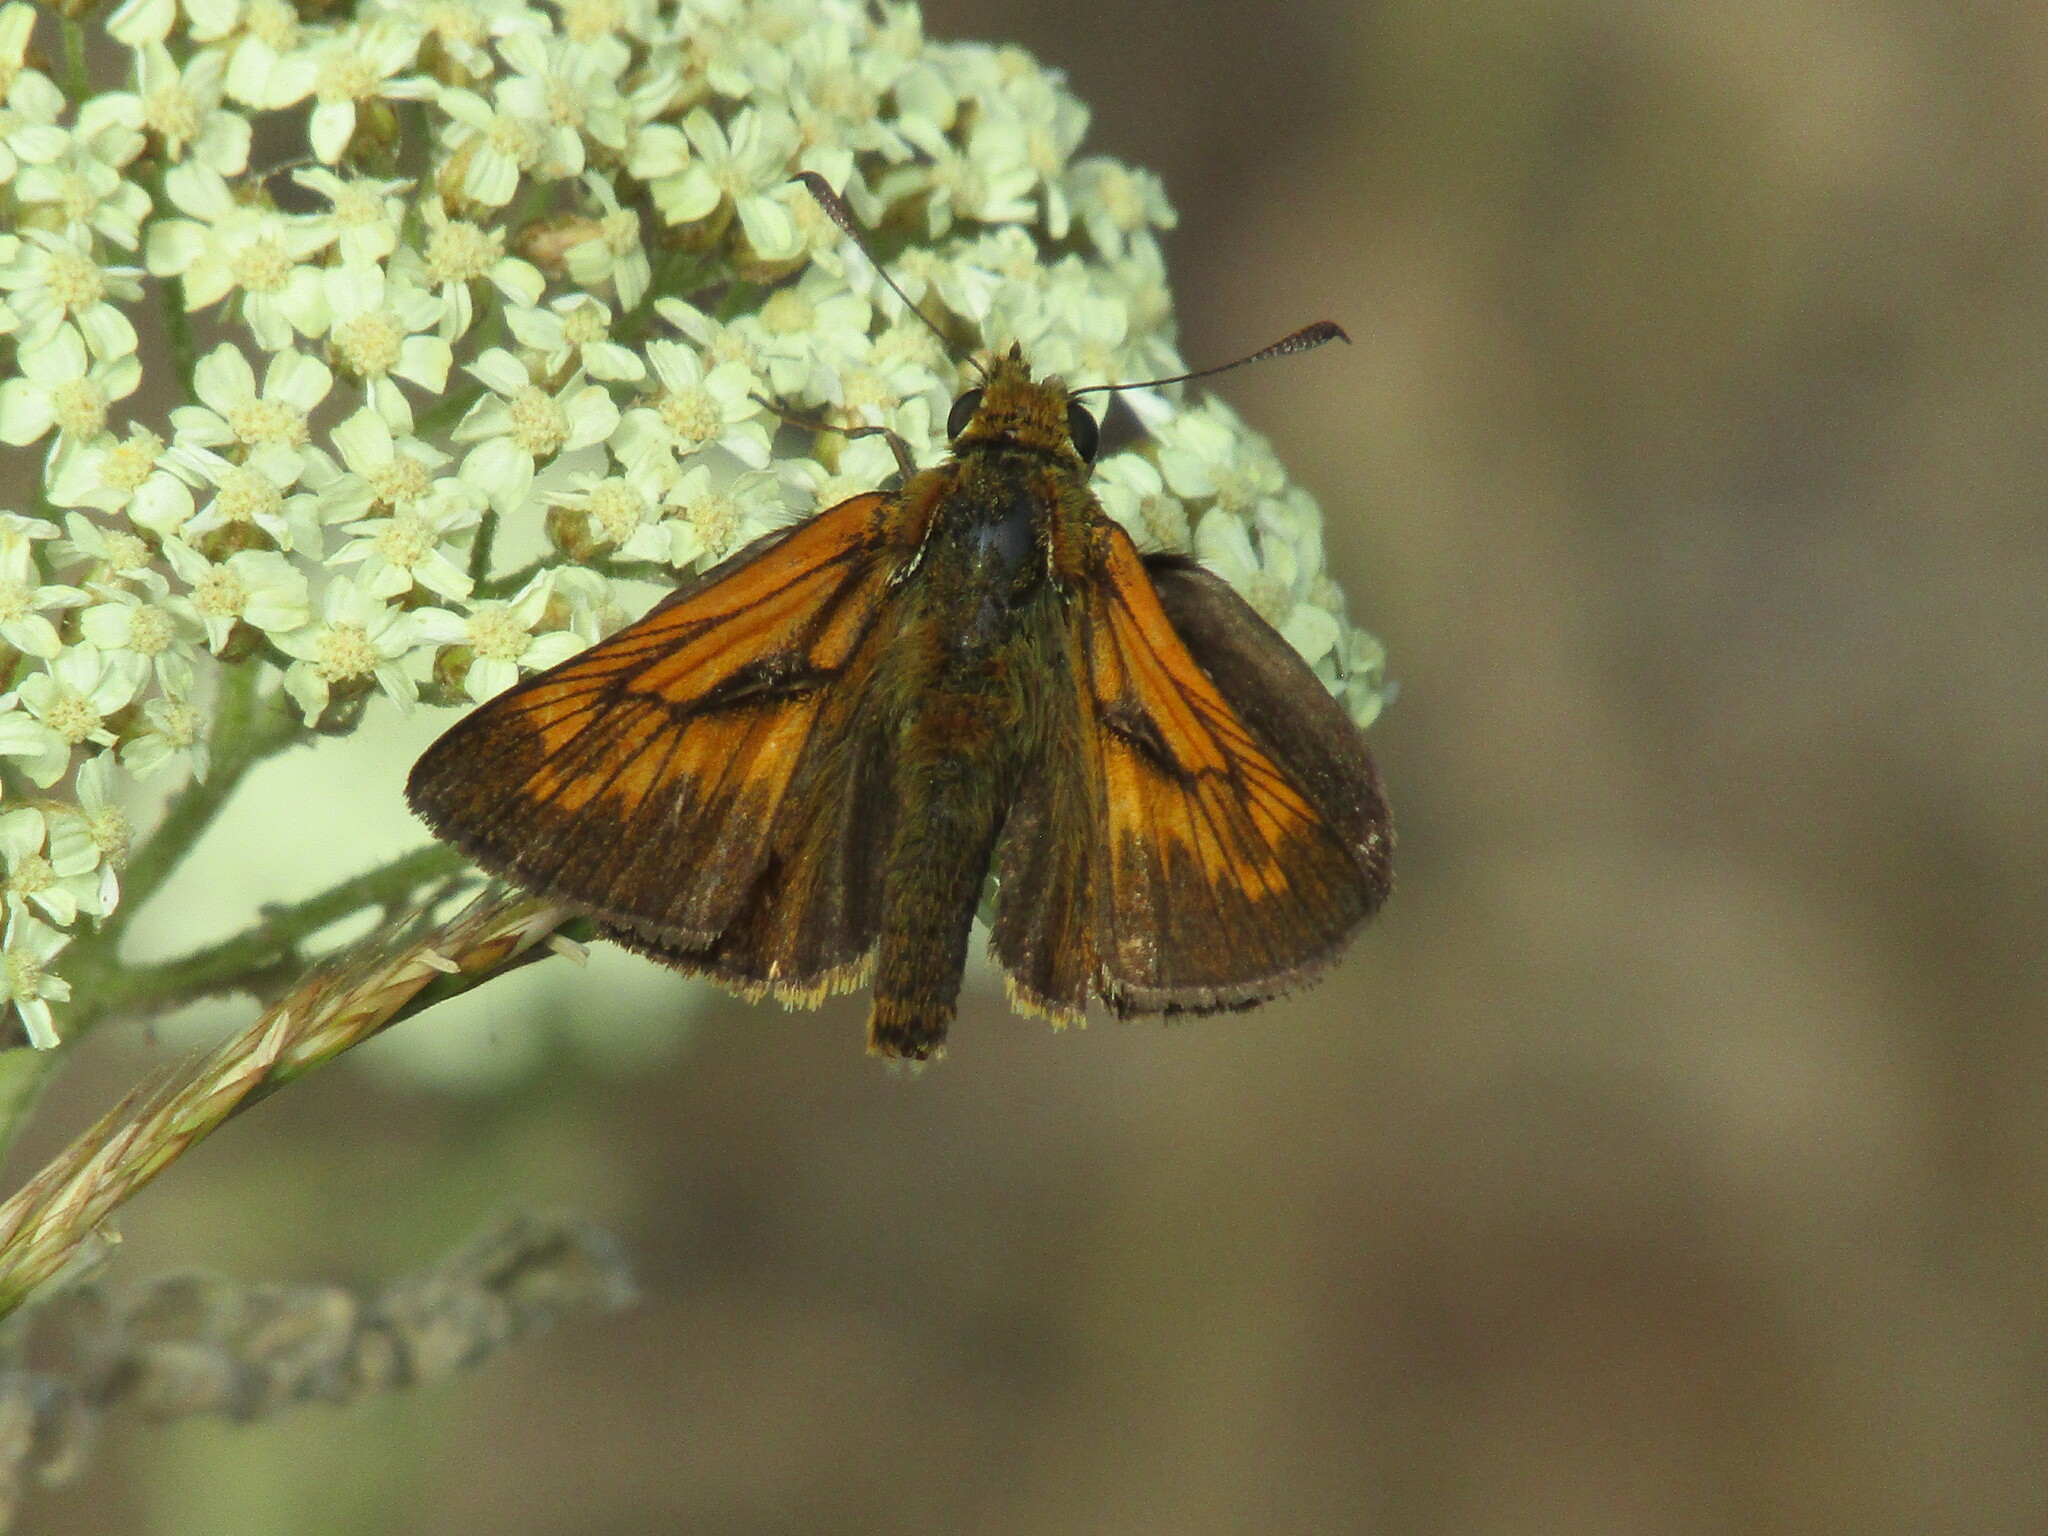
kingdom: Animalia
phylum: Arthropoda
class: Insecta
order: Lepidoptera
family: Hesperiidae
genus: Ochlodes
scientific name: Ochlodes venata
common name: Large skipper
